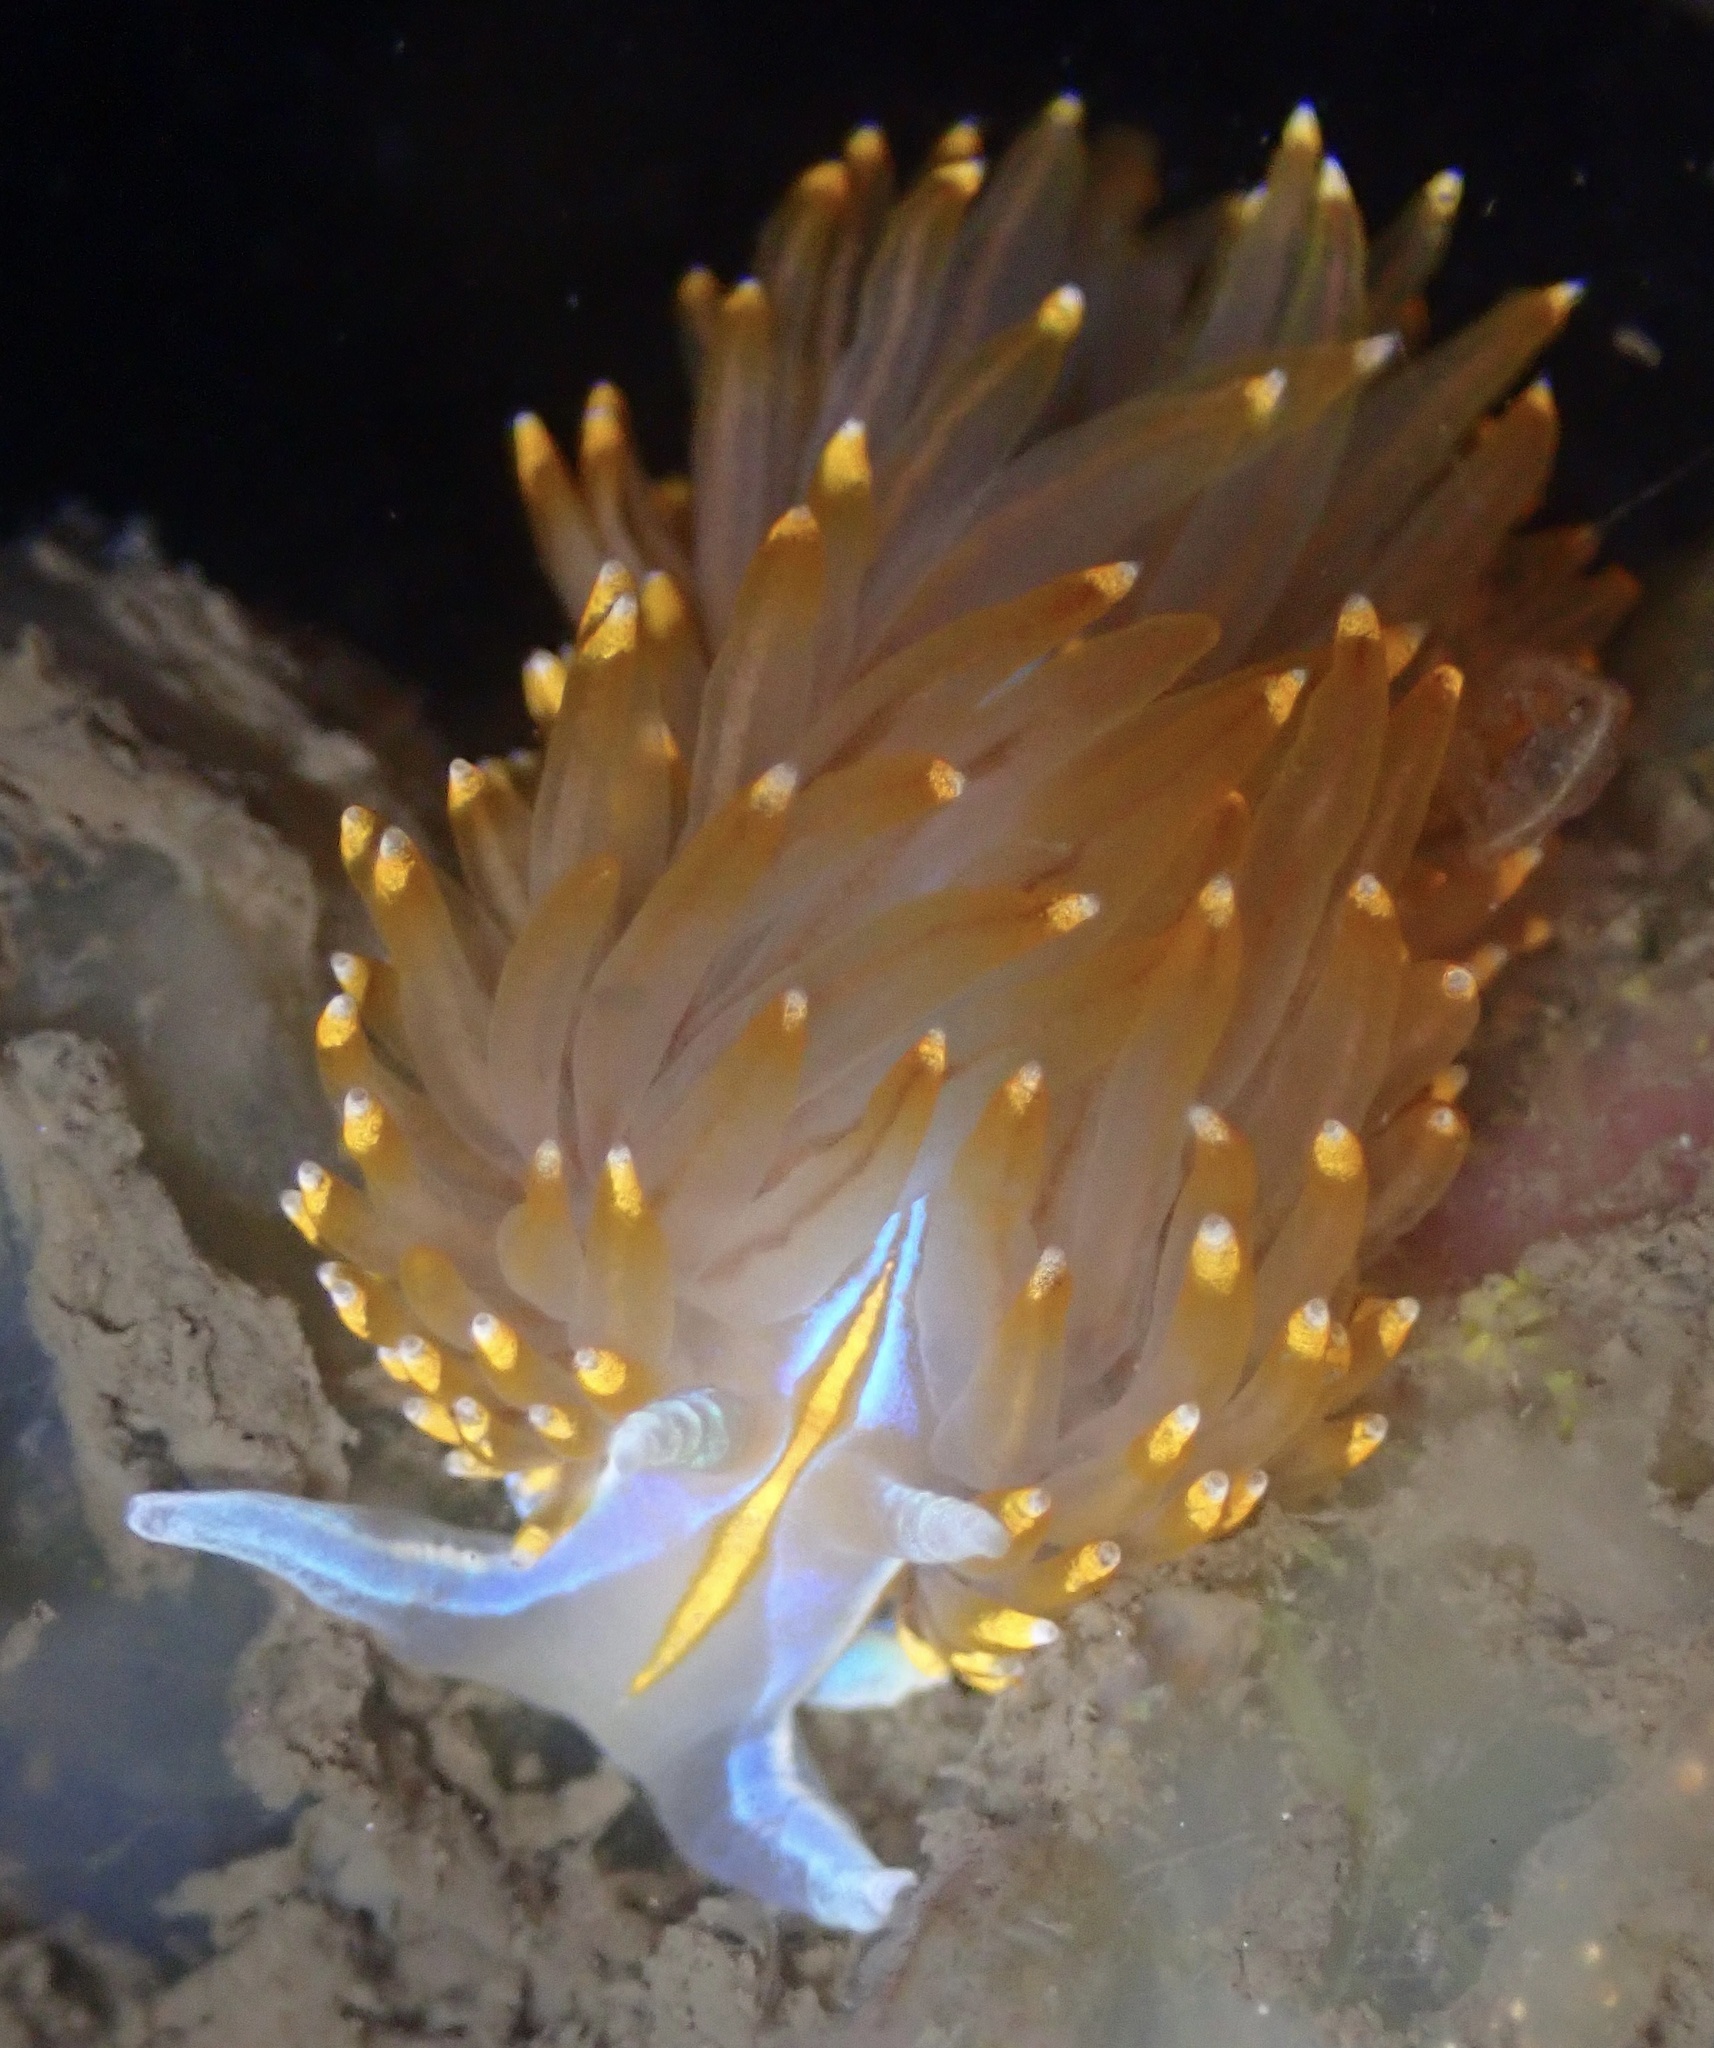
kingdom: Animalia
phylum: Mollusca
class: Gastropoda
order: Nudibranchia
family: Myrrhinidae
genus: Hermissenda
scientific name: Hermissenda opalescens
